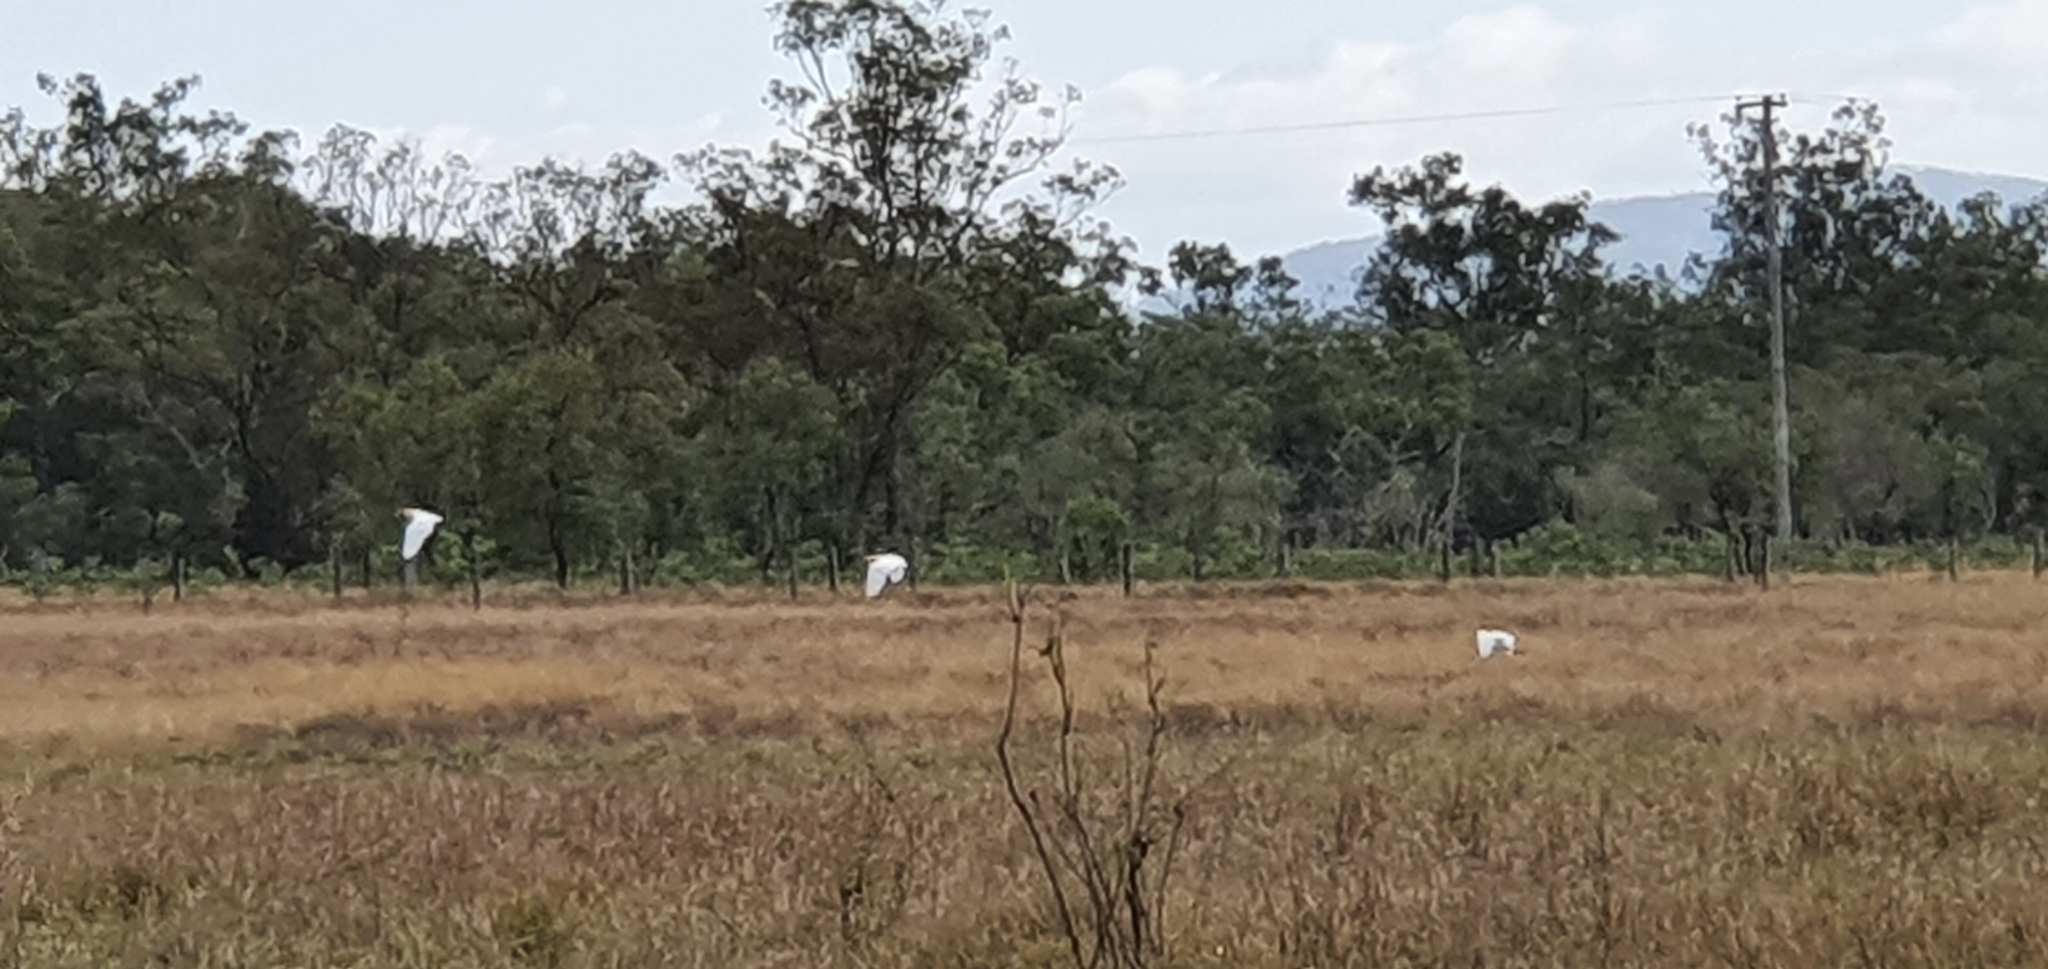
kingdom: Animalia
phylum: Chordata
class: Aves
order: Pelecaniformes
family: Ardeidae
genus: Bubulcus
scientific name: Bubulcus coromandus
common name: Eastern cattle egret
